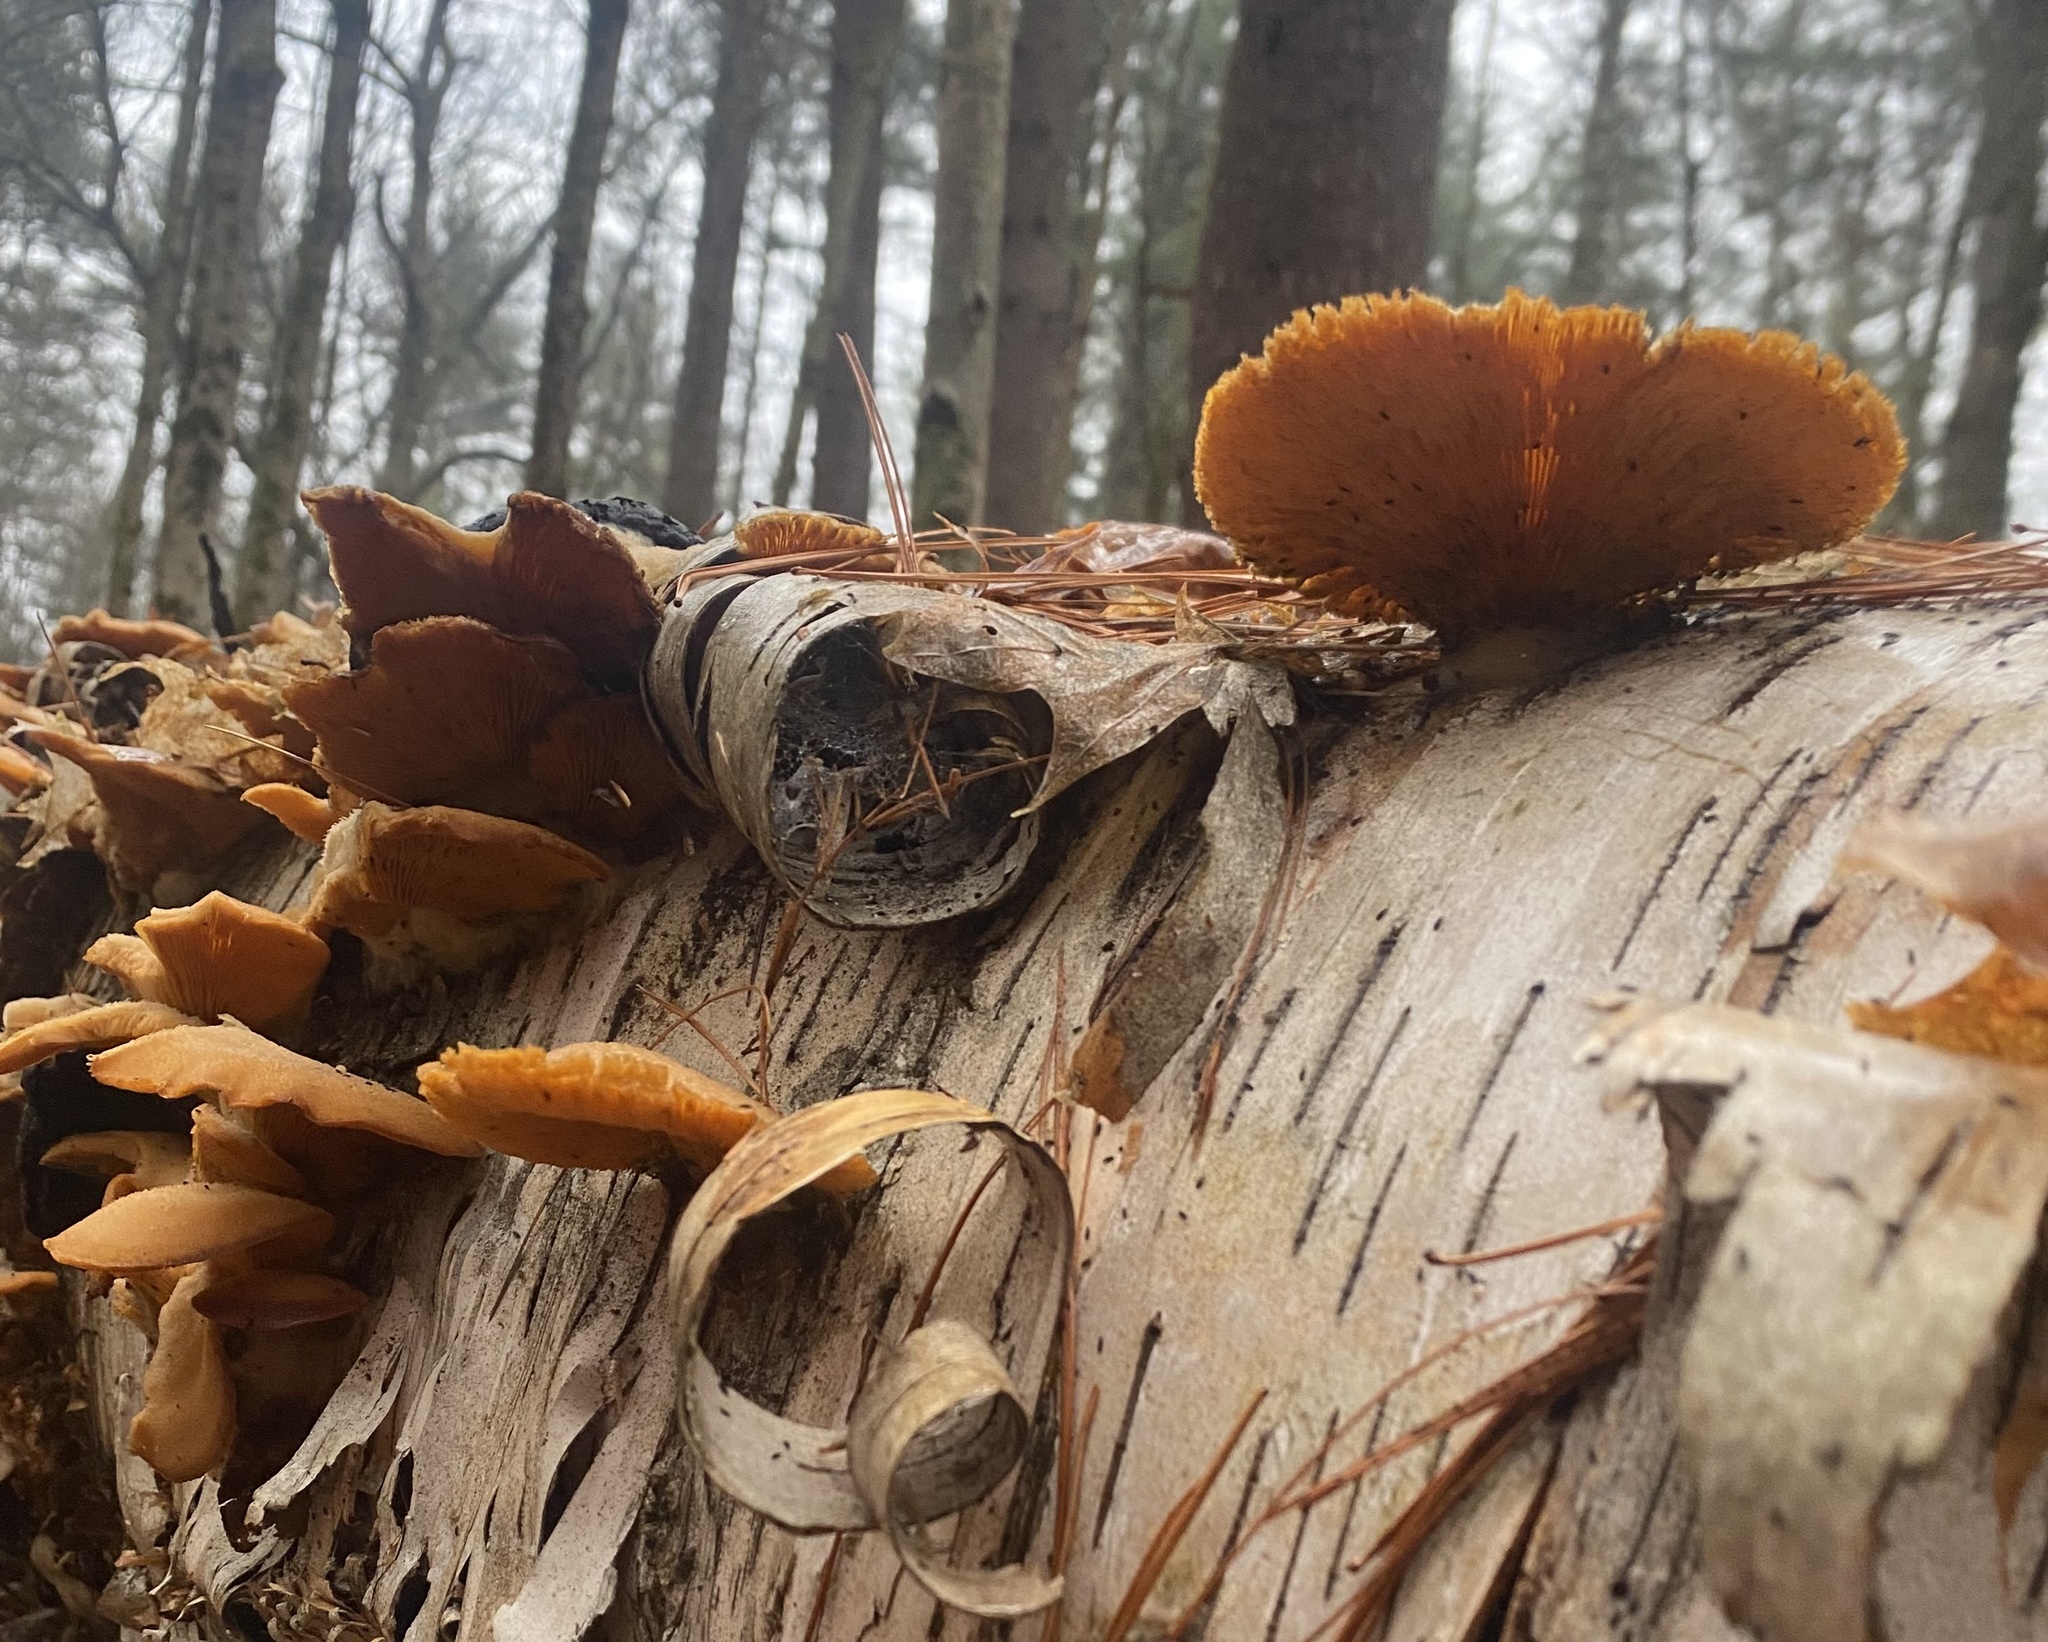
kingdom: Fungi
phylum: Basidiomycota
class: Agaricomycetes
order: Agaricales
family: Phyllotopsidaceae
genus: Phyllotopsis
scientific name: Phyllotopsis nidulans
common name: Orange mock oyster
